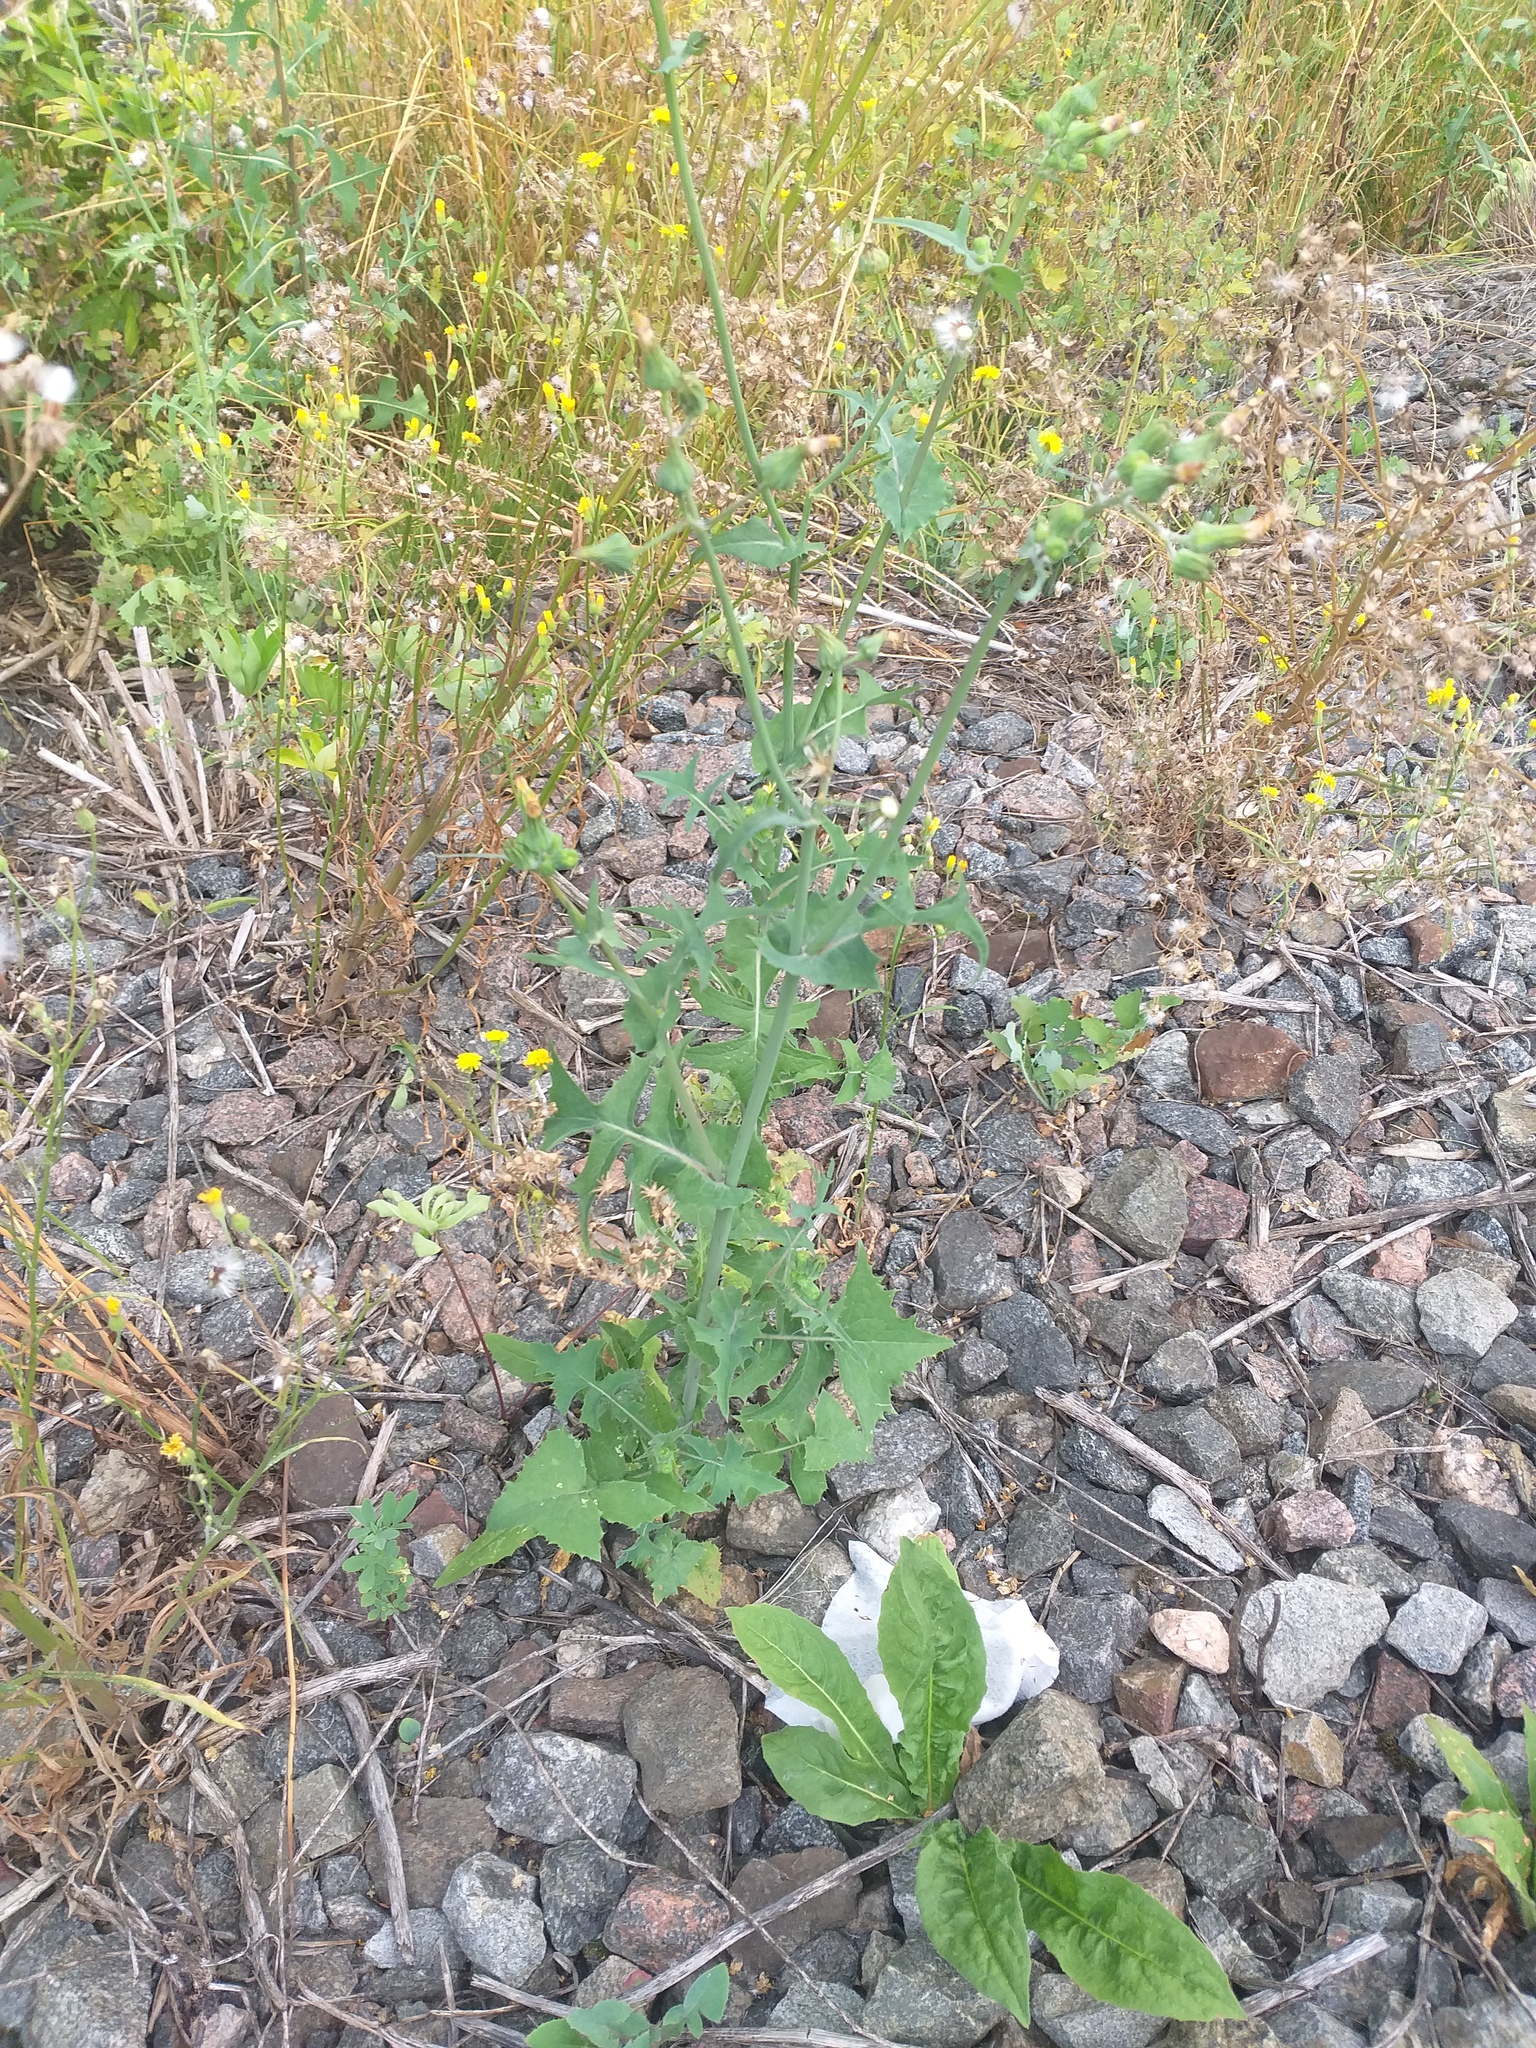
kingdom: Plantae
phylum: Tracheophyta
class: Magnoliopsida
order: Asterales
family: Asteraceae
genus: Sonchus
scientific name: Sonchus oleraceus
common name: Common sowthistle
